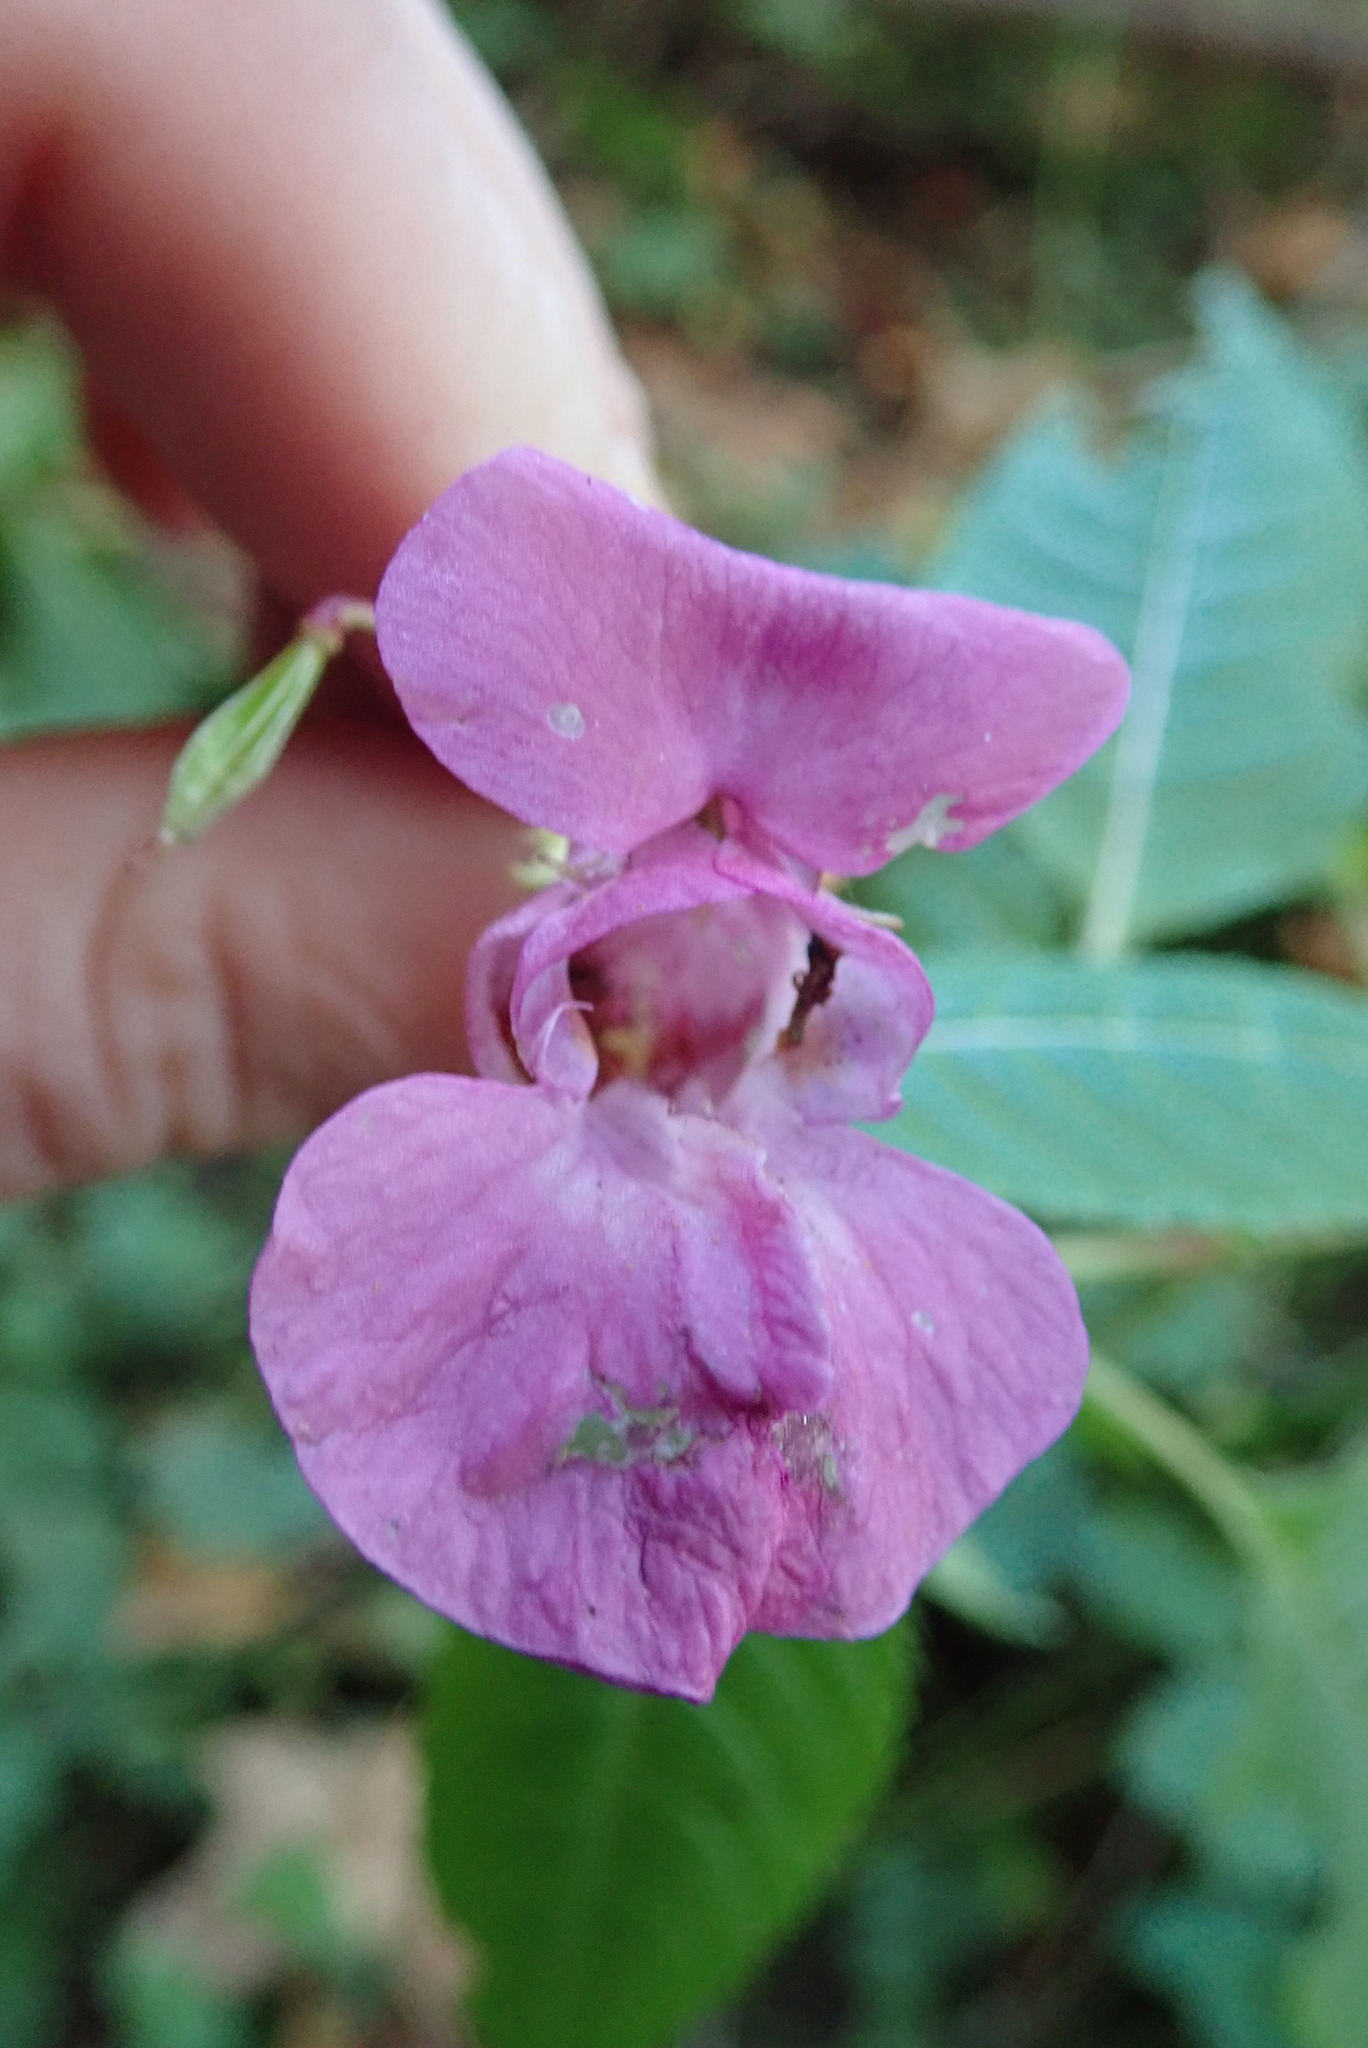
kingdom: Plantae
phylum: Tracheophyta
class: Magnoliopsida
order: Ericales
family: Balsaminaceae
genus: Impatiens
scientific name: Impatiens glandulifera
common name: Himalayan balsam
